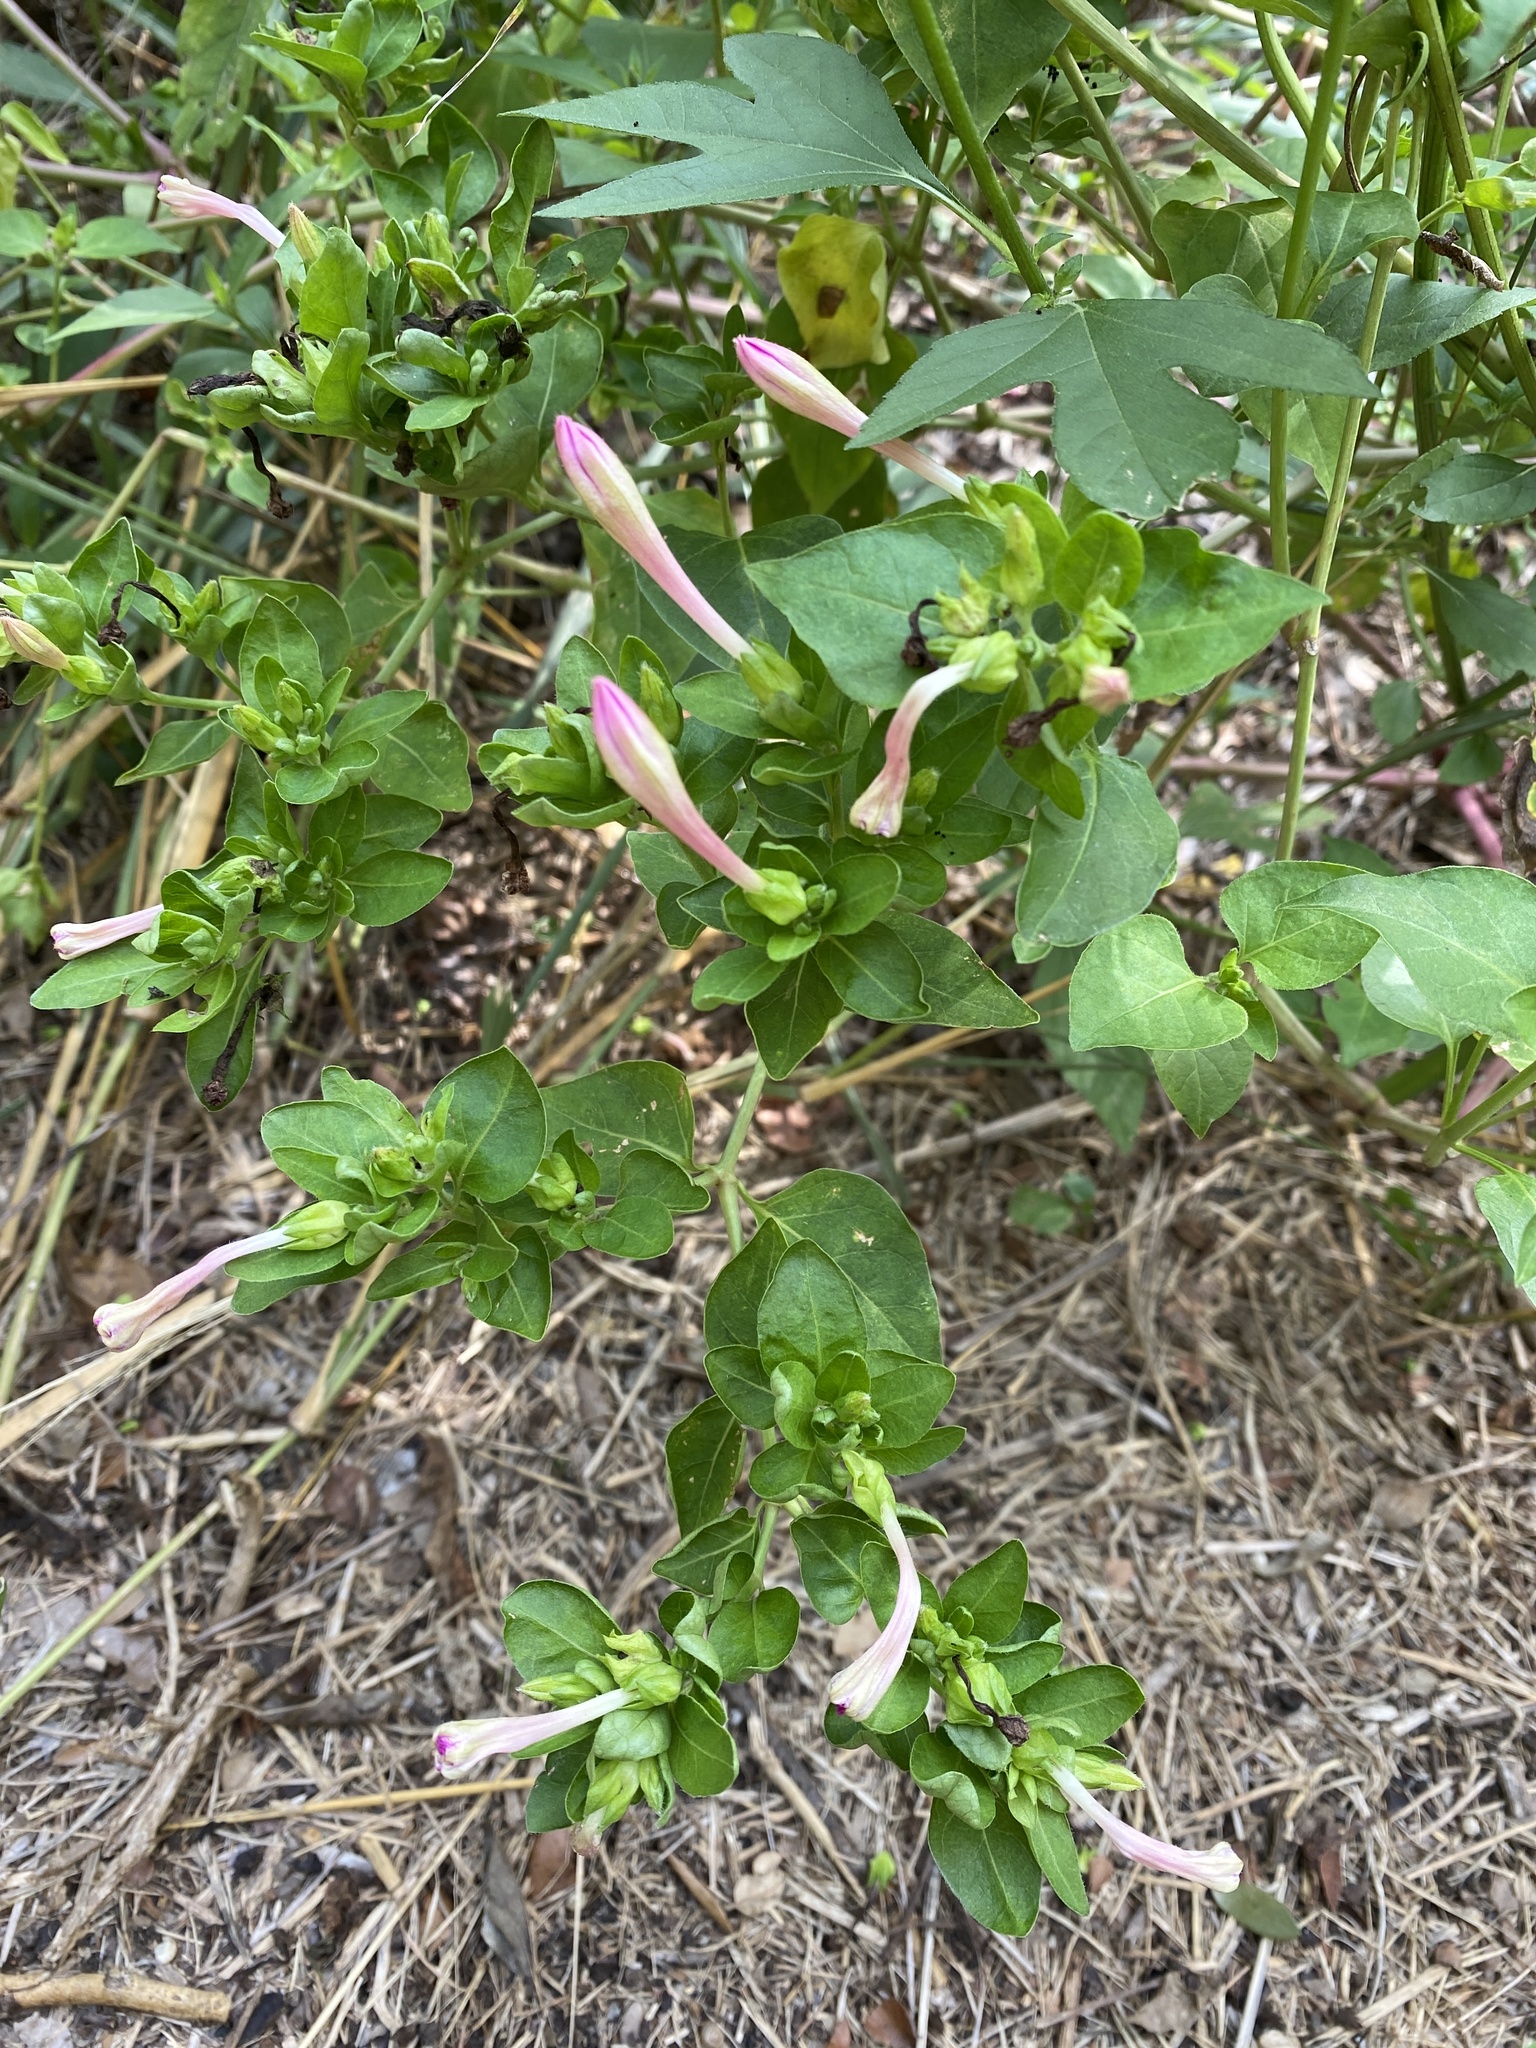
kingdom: Plantae
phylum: Tracheophyta
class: Magnoliopsida
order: Caryophyllales
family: Nyctaginaceae
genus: Mirabilis
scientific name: Mirabilis jalapa
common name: Marvel-of-peru
